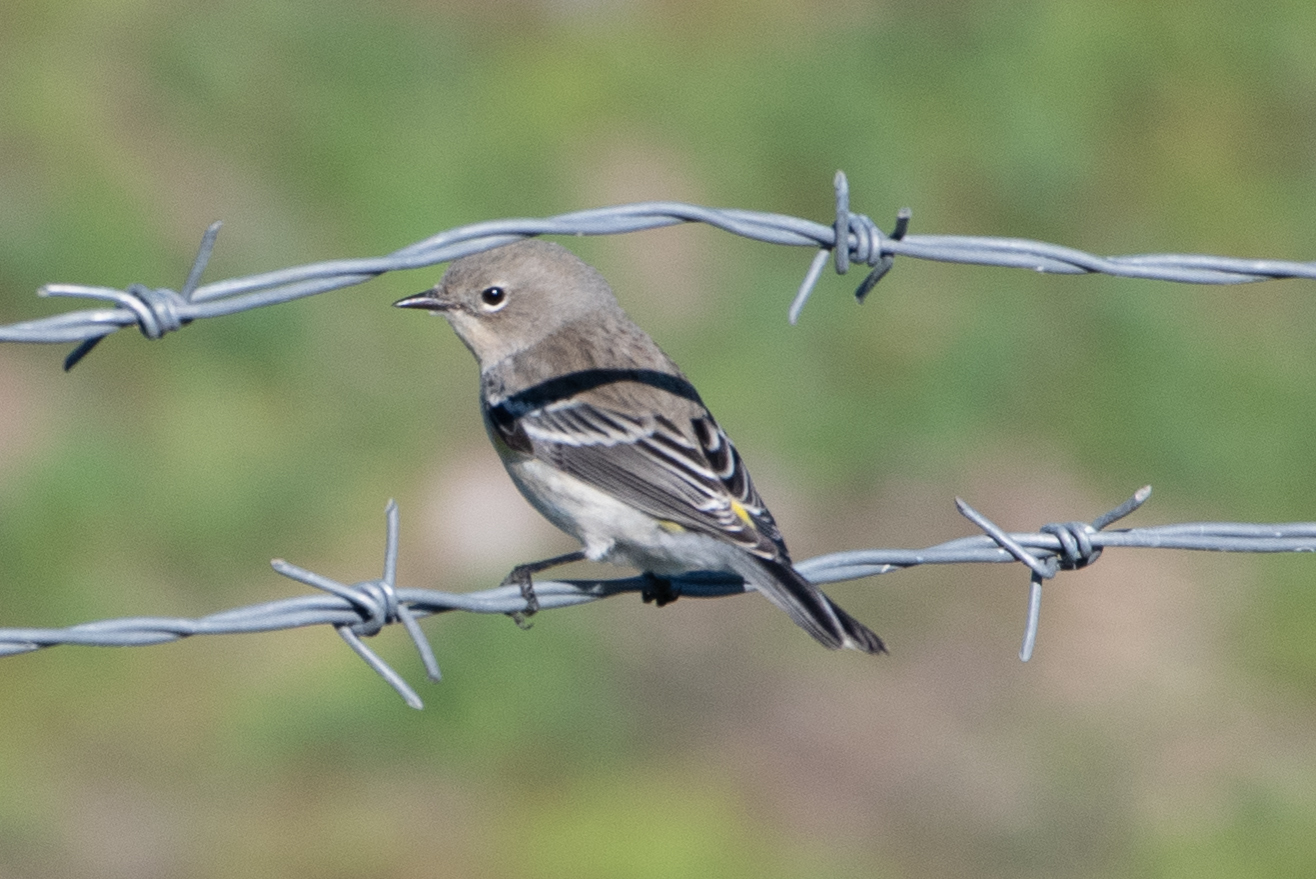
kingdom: Animalia
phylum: Chordata
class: Aves
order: Passeriformes
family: Parulidae
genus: Setophaga
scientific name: Setophaga coronata
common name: Myrtle warbler
